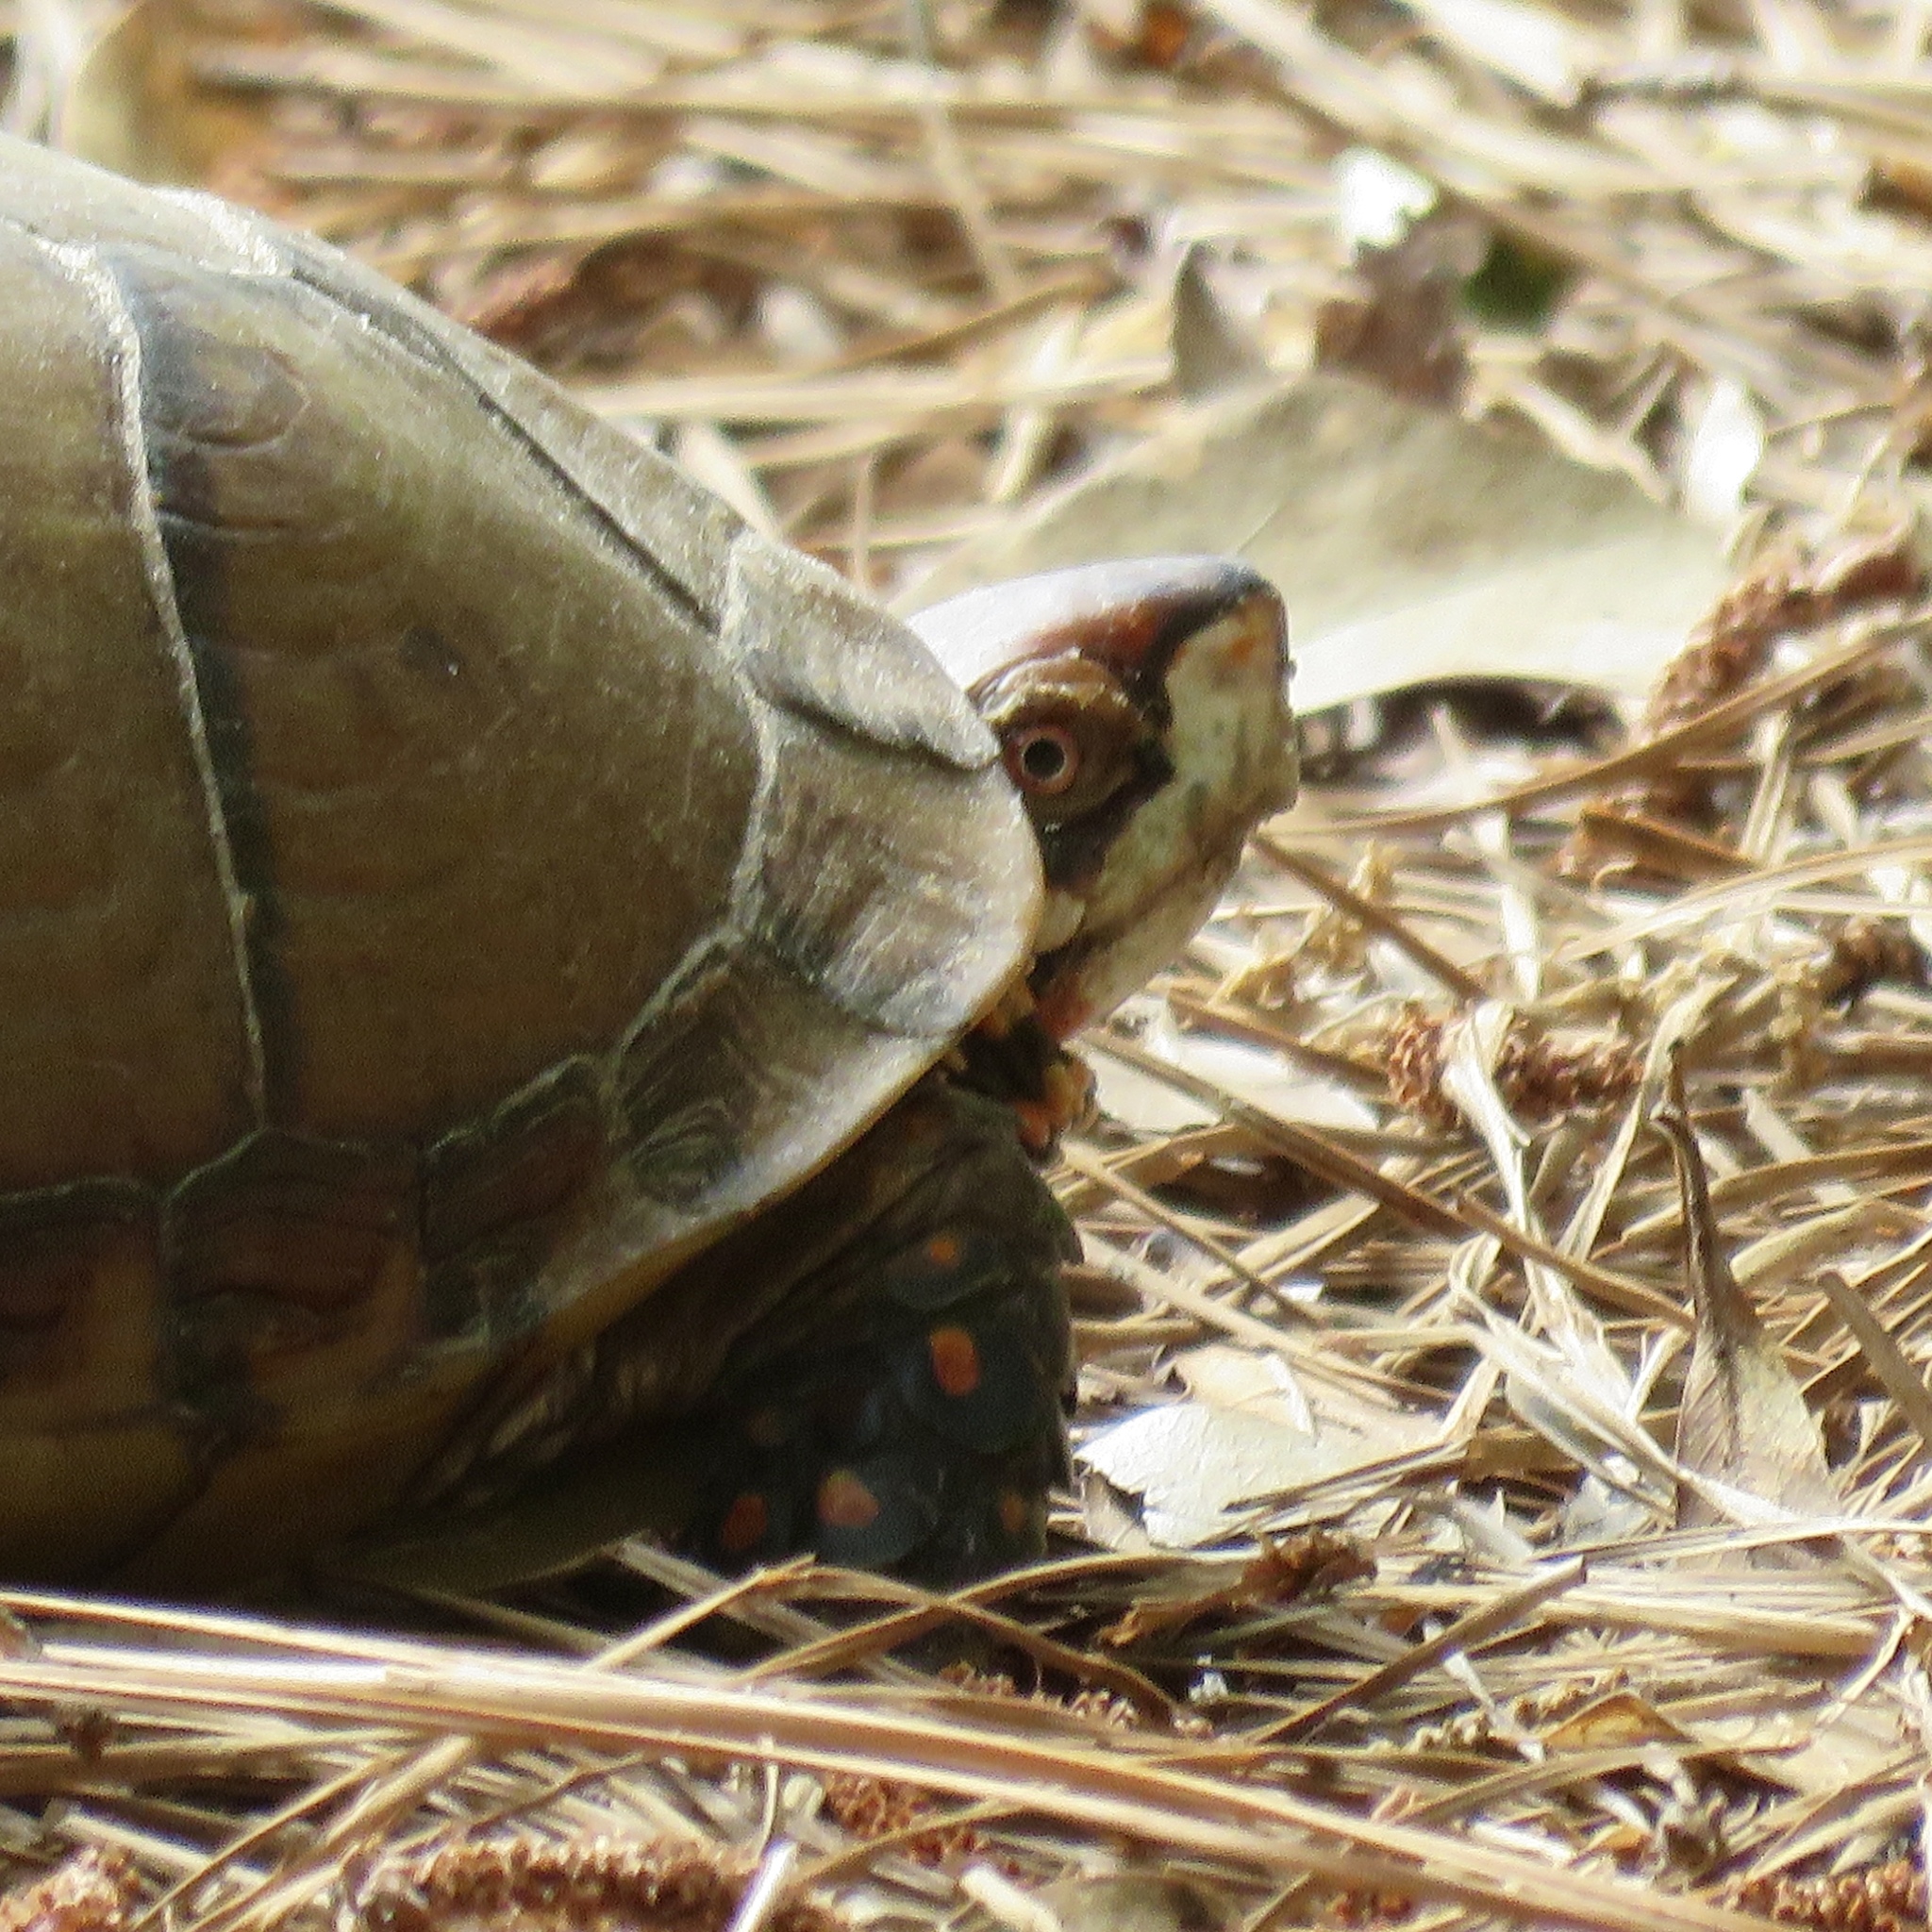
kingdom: Animalia
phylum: Chordata
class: Testudines
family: Emydidae
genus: Terrapene
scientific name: Terrapene carolina
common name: Common box turtle
